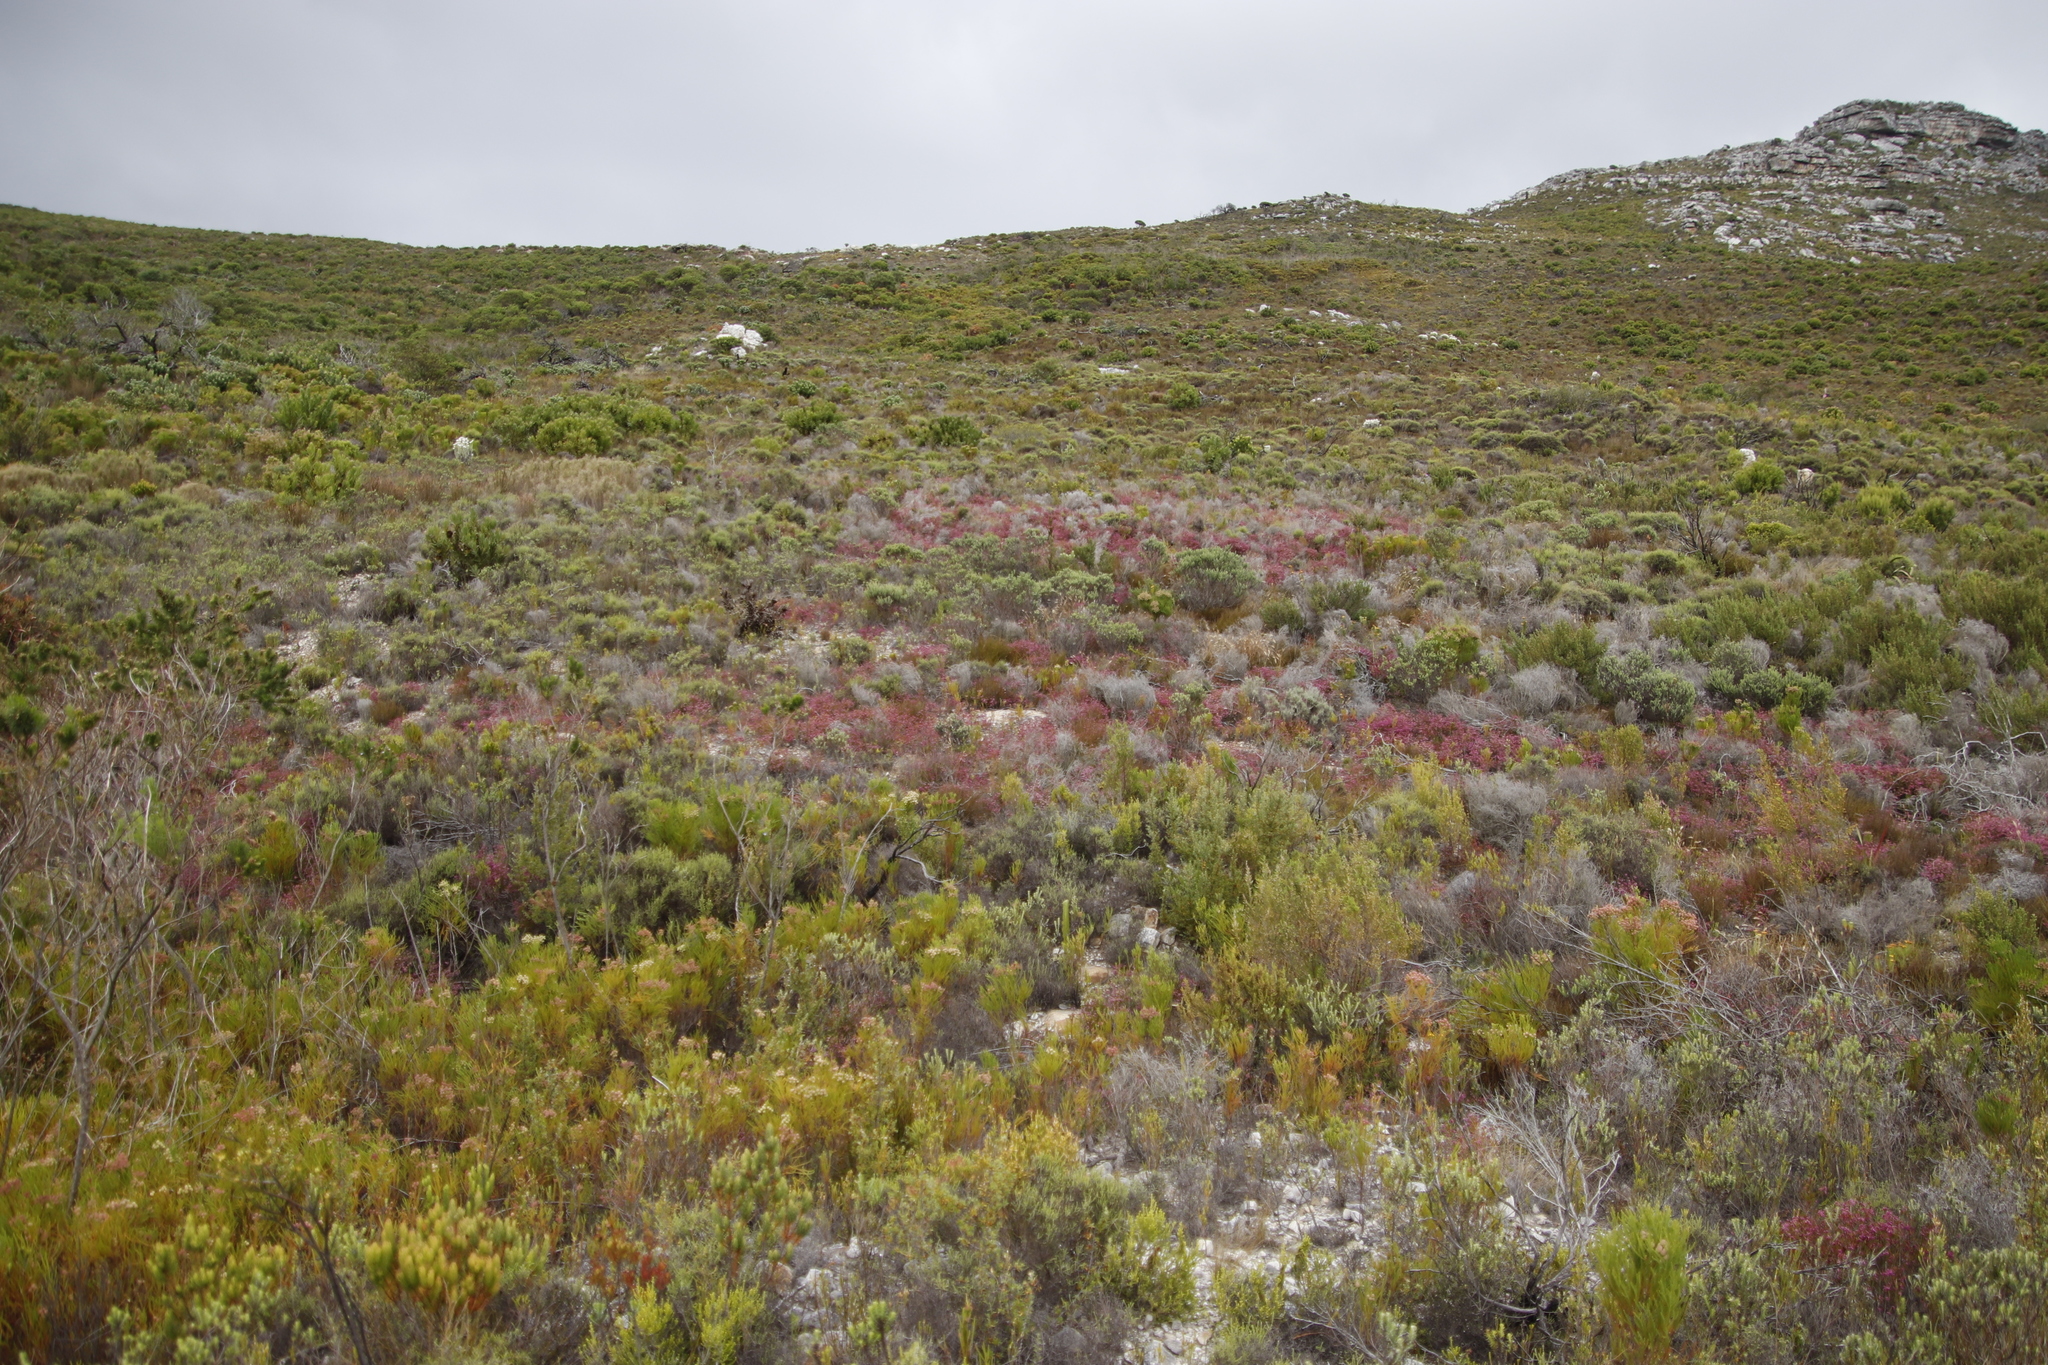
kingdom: Plantae
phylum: Tracheophyta
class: Magnoliopsida
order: Ericales
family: Ericaceae
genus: Erica
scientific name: Erica multumbellifera
